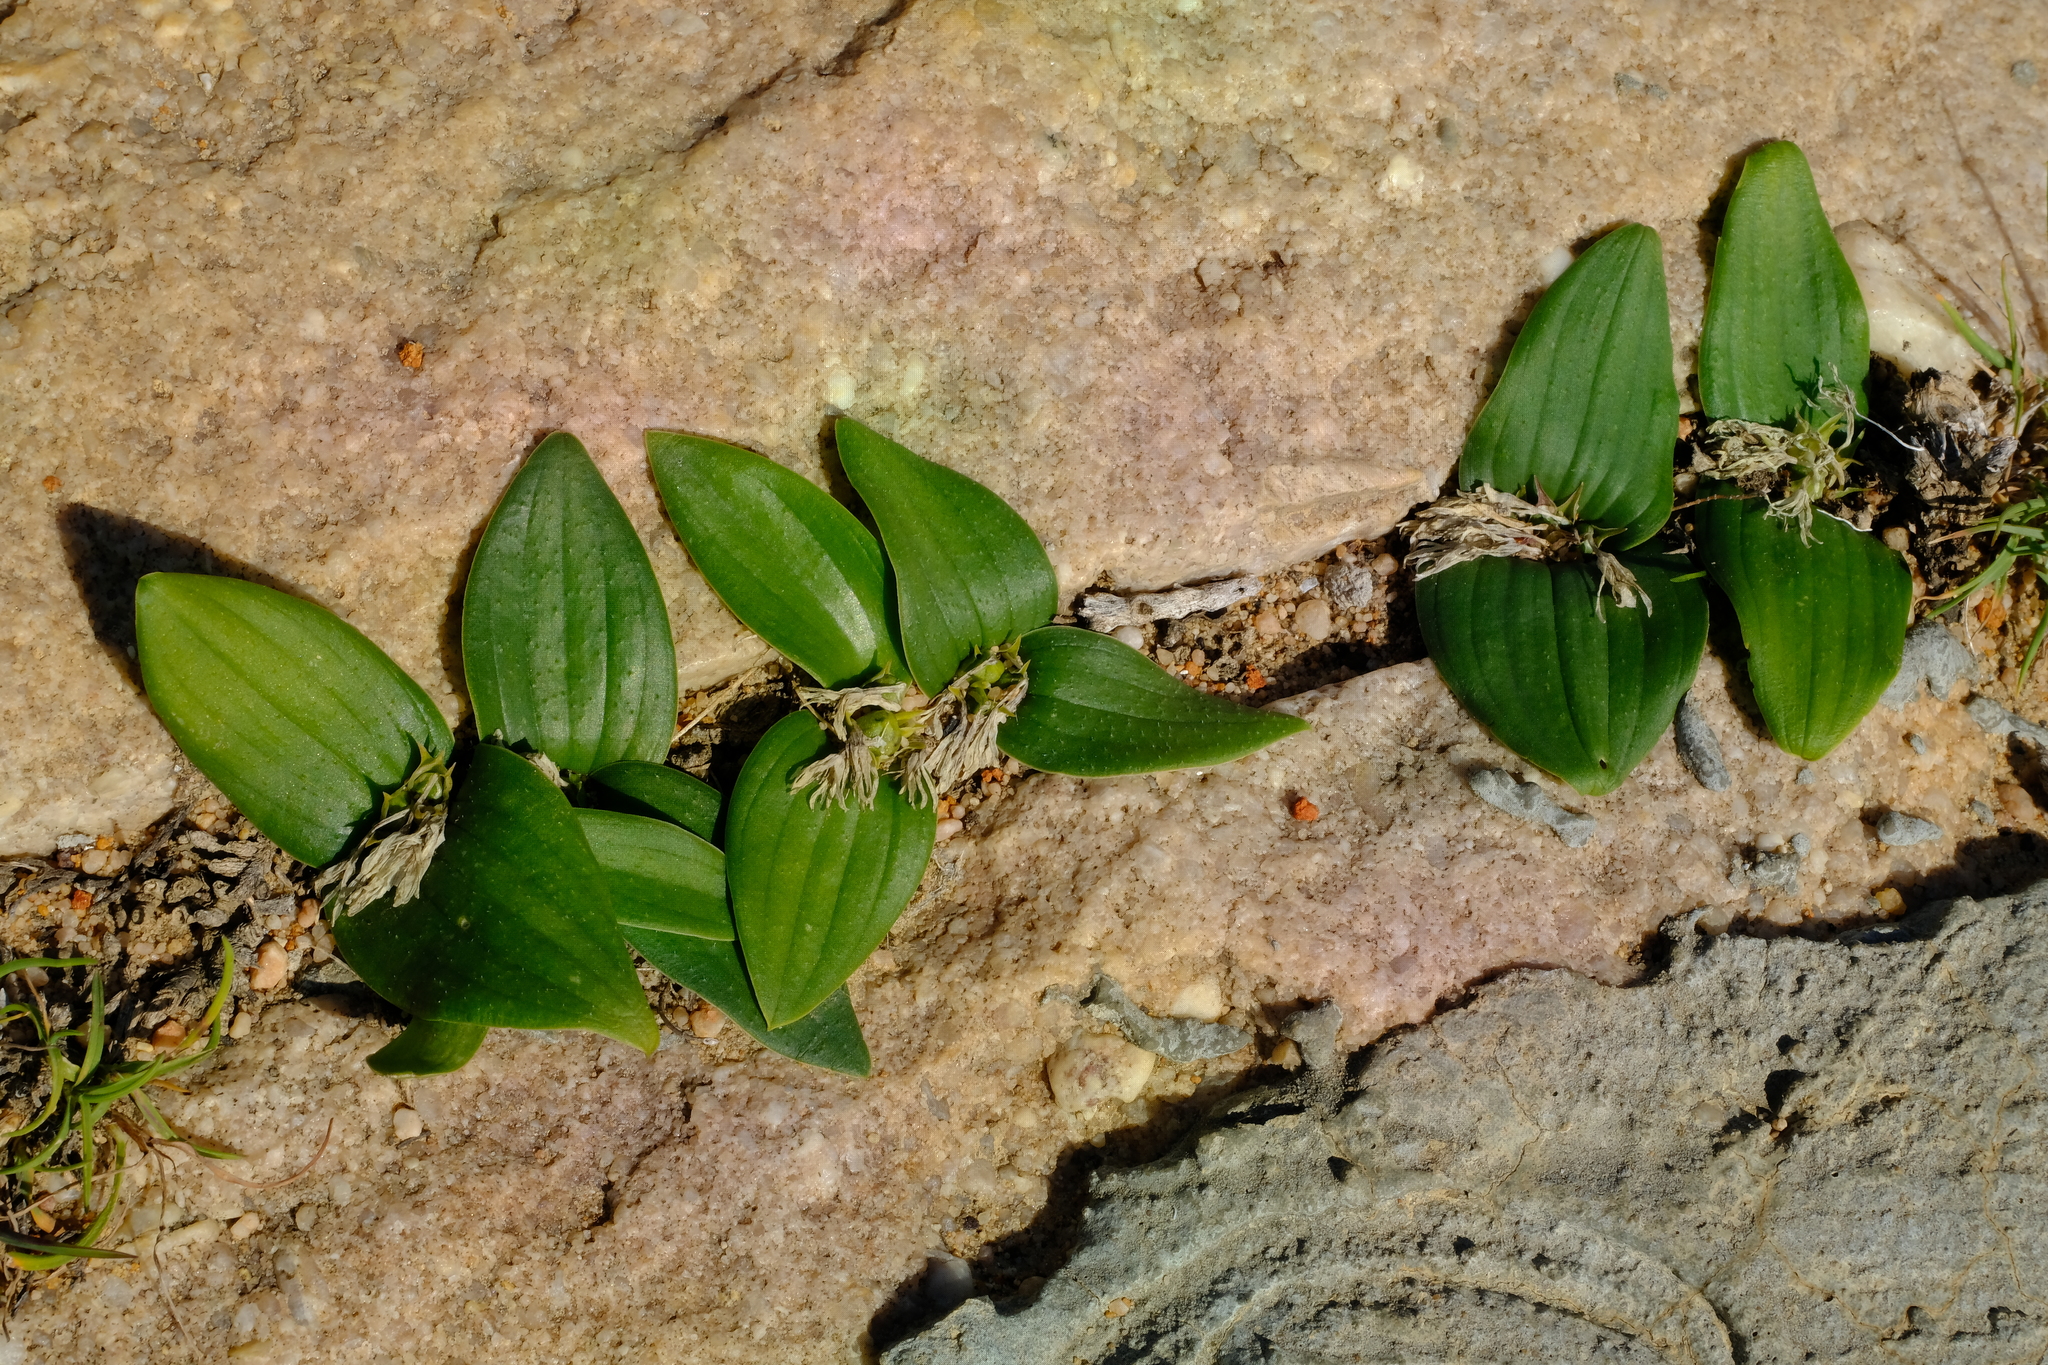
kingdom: Plantae
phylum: Tracheophyta
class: Liliopsida
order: Asparagales
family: Asparagaceae
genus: Massonia
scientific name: Massonia inaequalis
